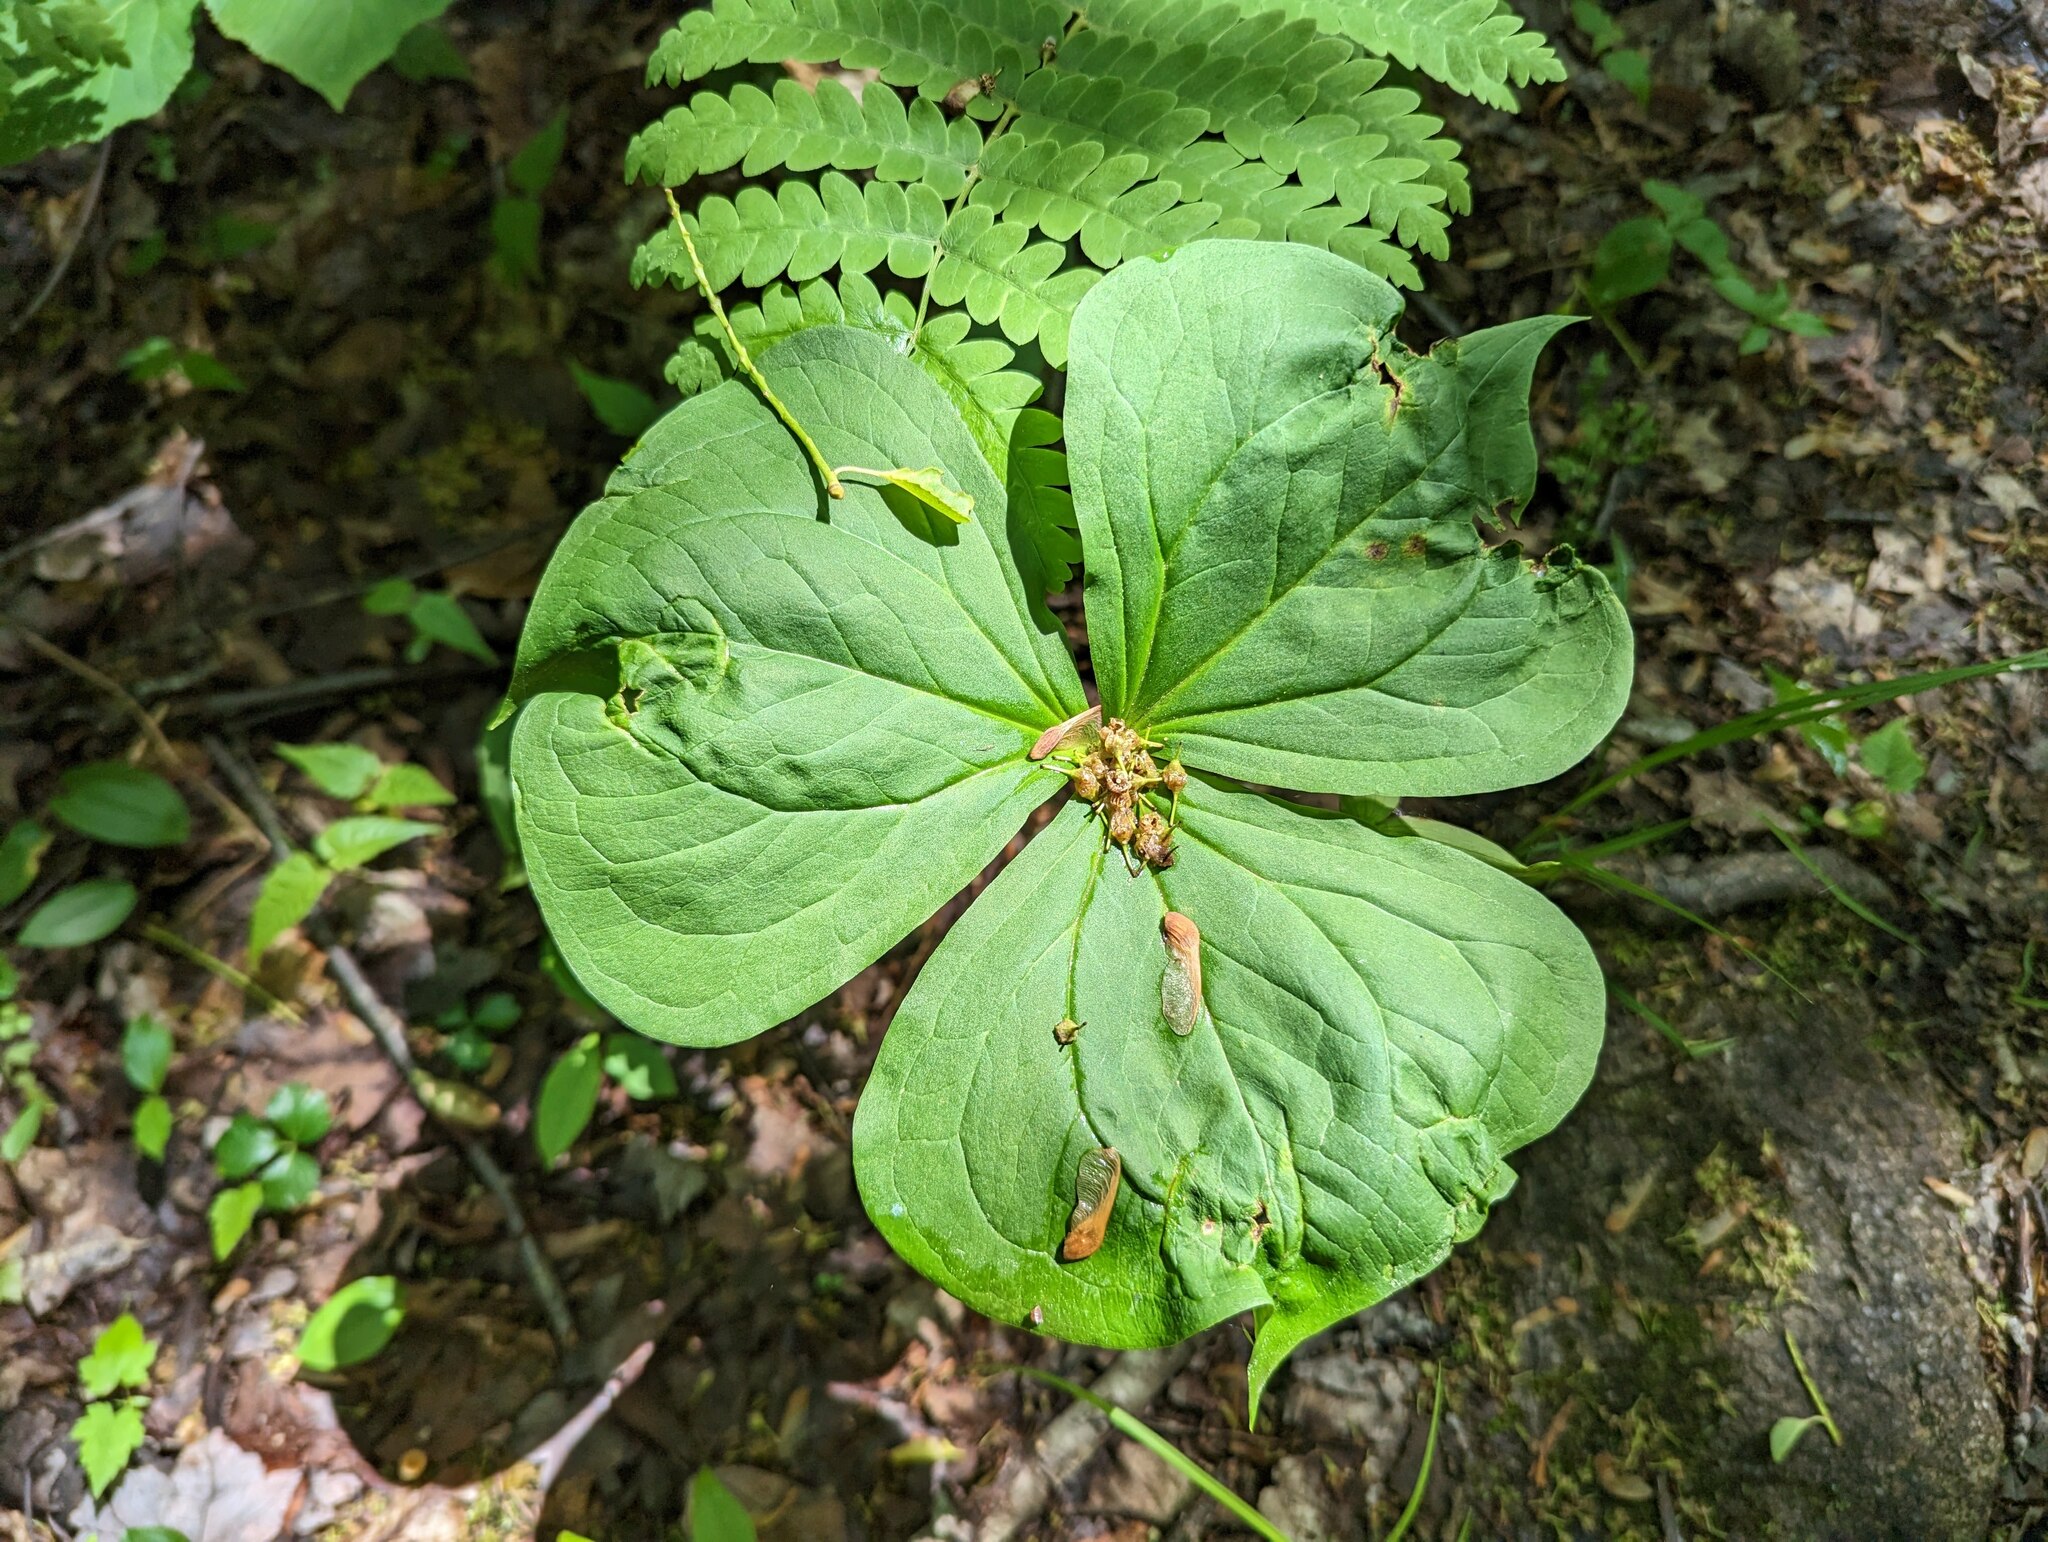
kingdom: Plantae
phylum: Tracheophyta
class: Liliopsida
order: Liliales
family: Melanthiaceae
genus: Trillium
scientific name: Trillium erectum
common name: Purple trillium
